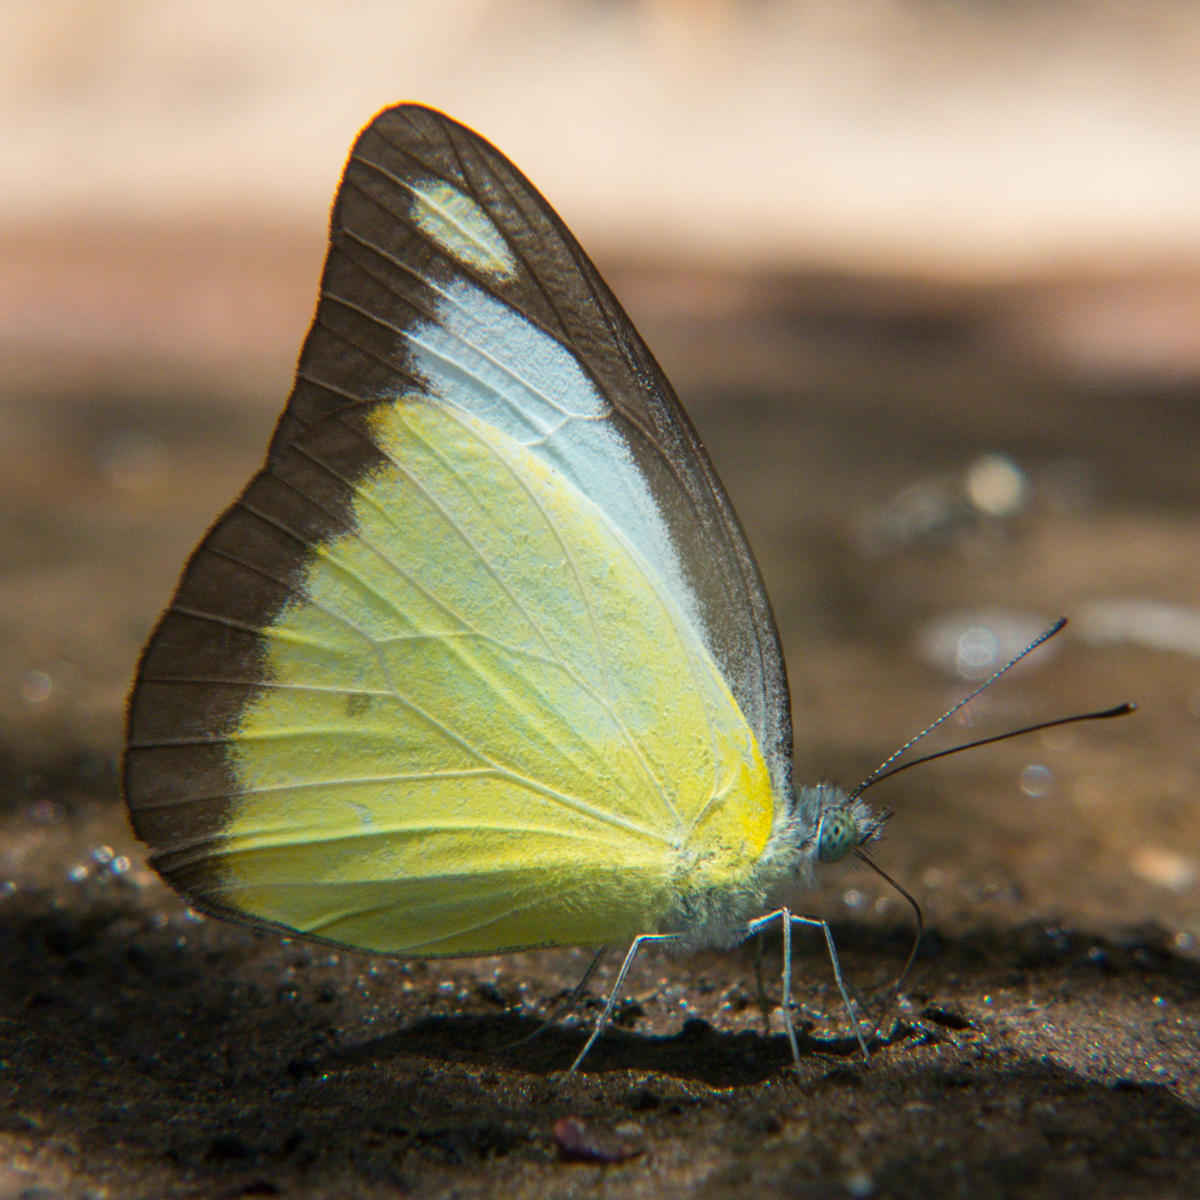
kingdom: Animalia
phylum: Arthropoda
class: Insecta
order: Lepidoptera
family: Pieridae
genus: Appias
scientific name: Appias lyncida
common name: Chocolate albatross
